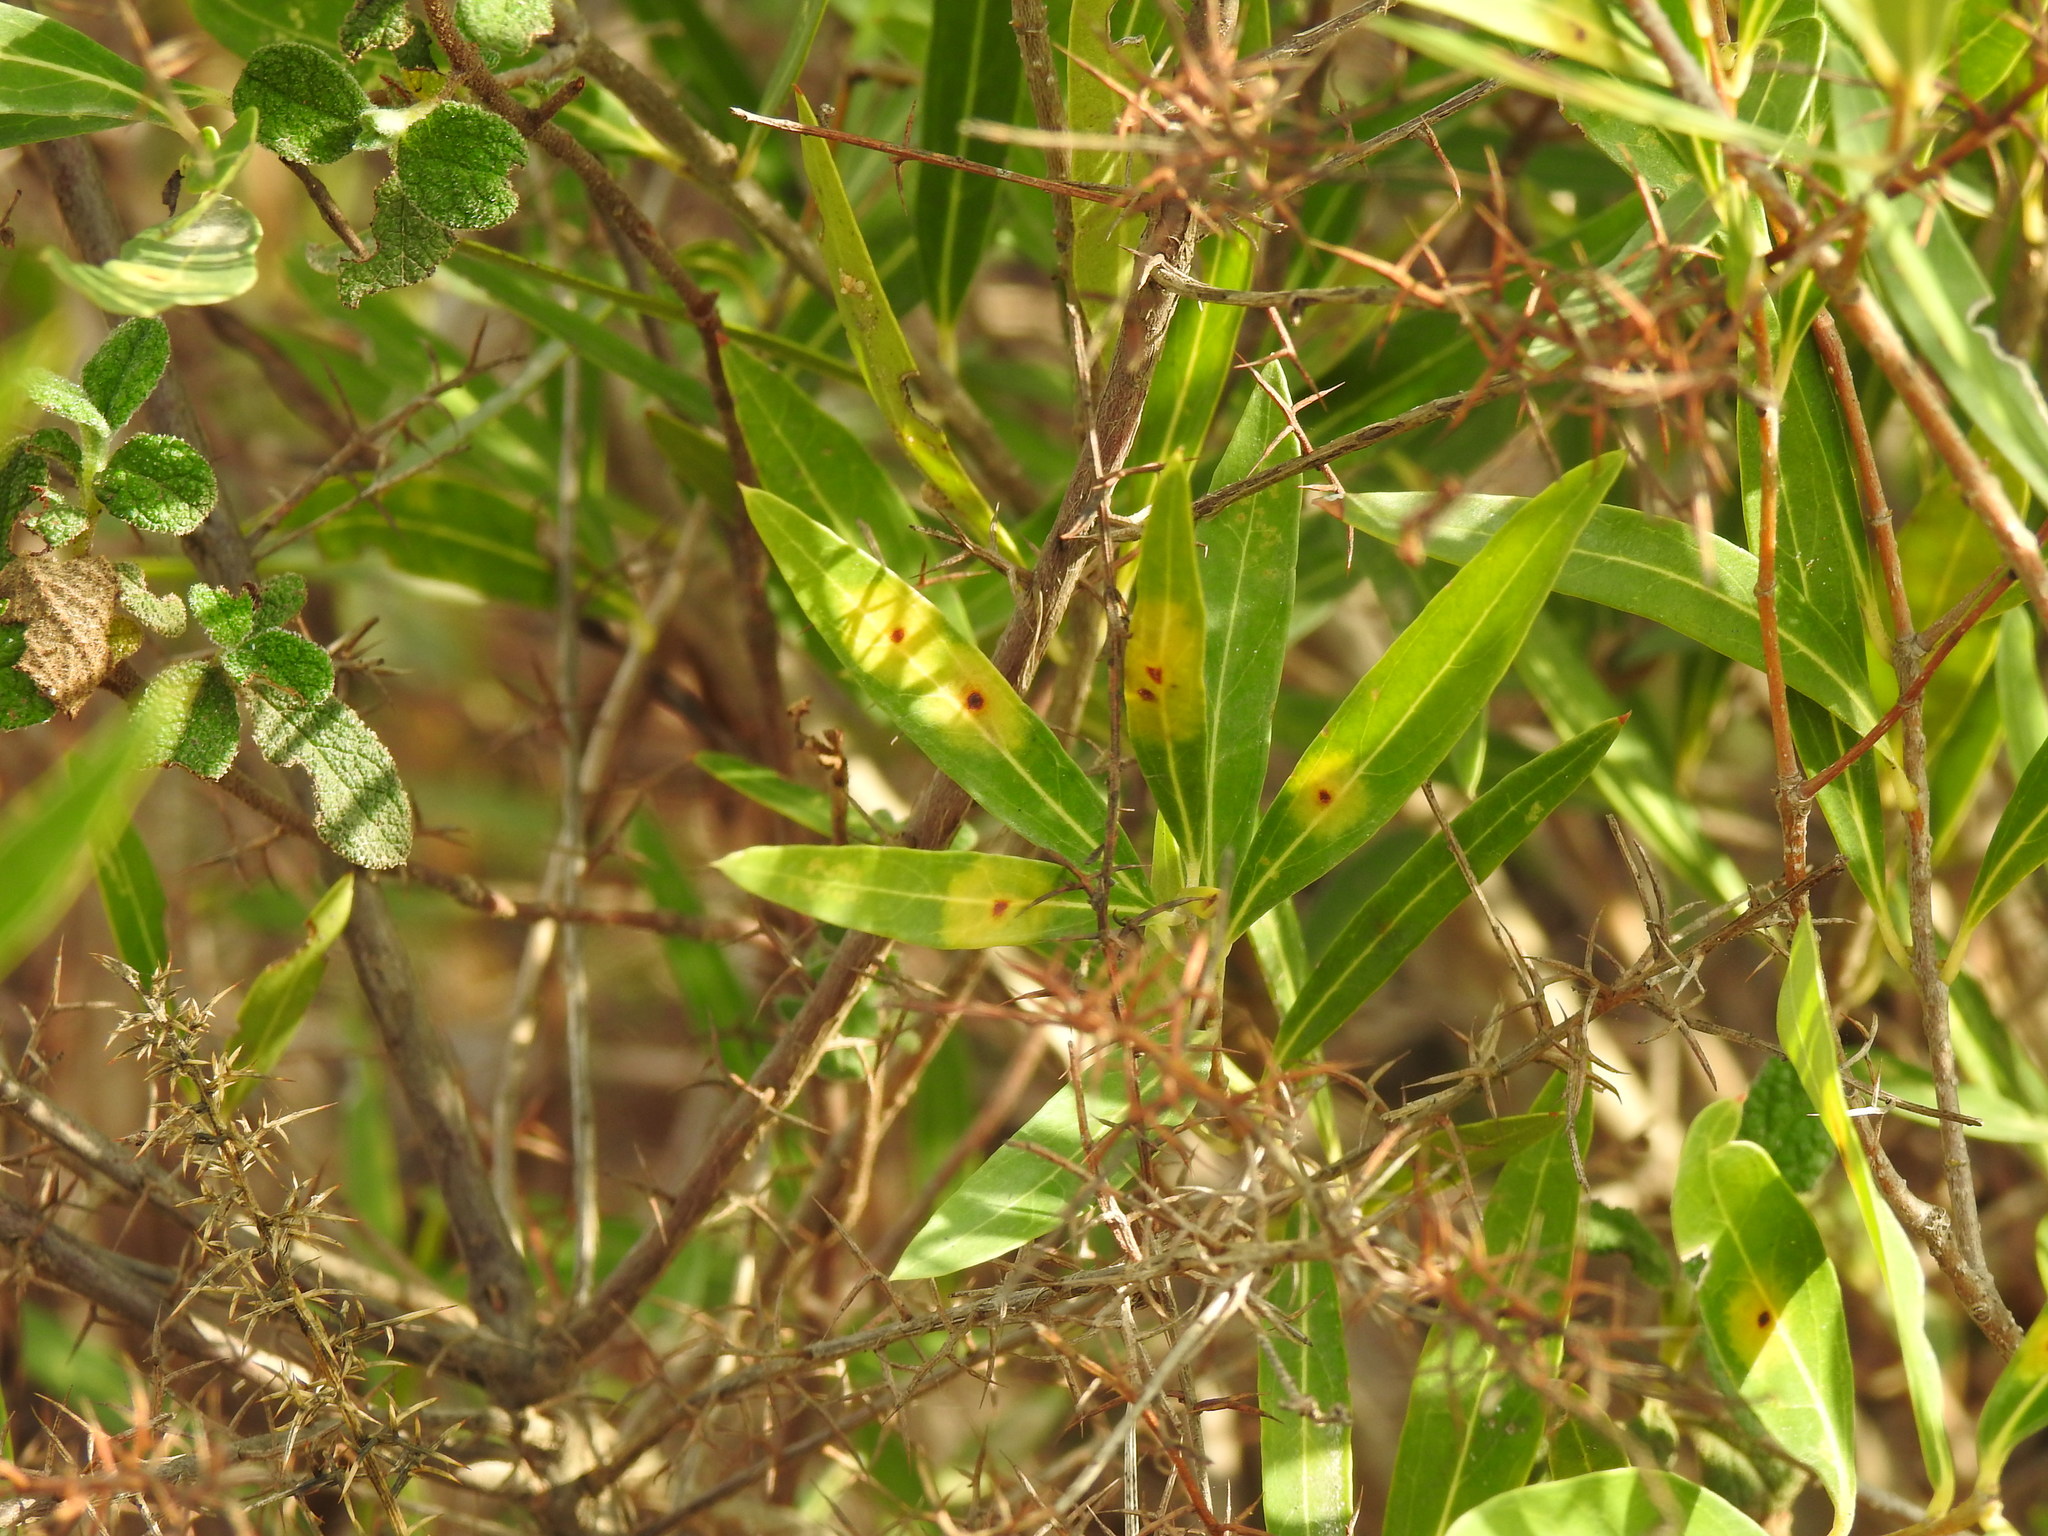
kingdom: Animalia
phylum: Arthropoda
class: Insecta
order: Diptera
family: Cecidomyiidae
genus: Braueriella
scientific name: Braueriella phillyreae
